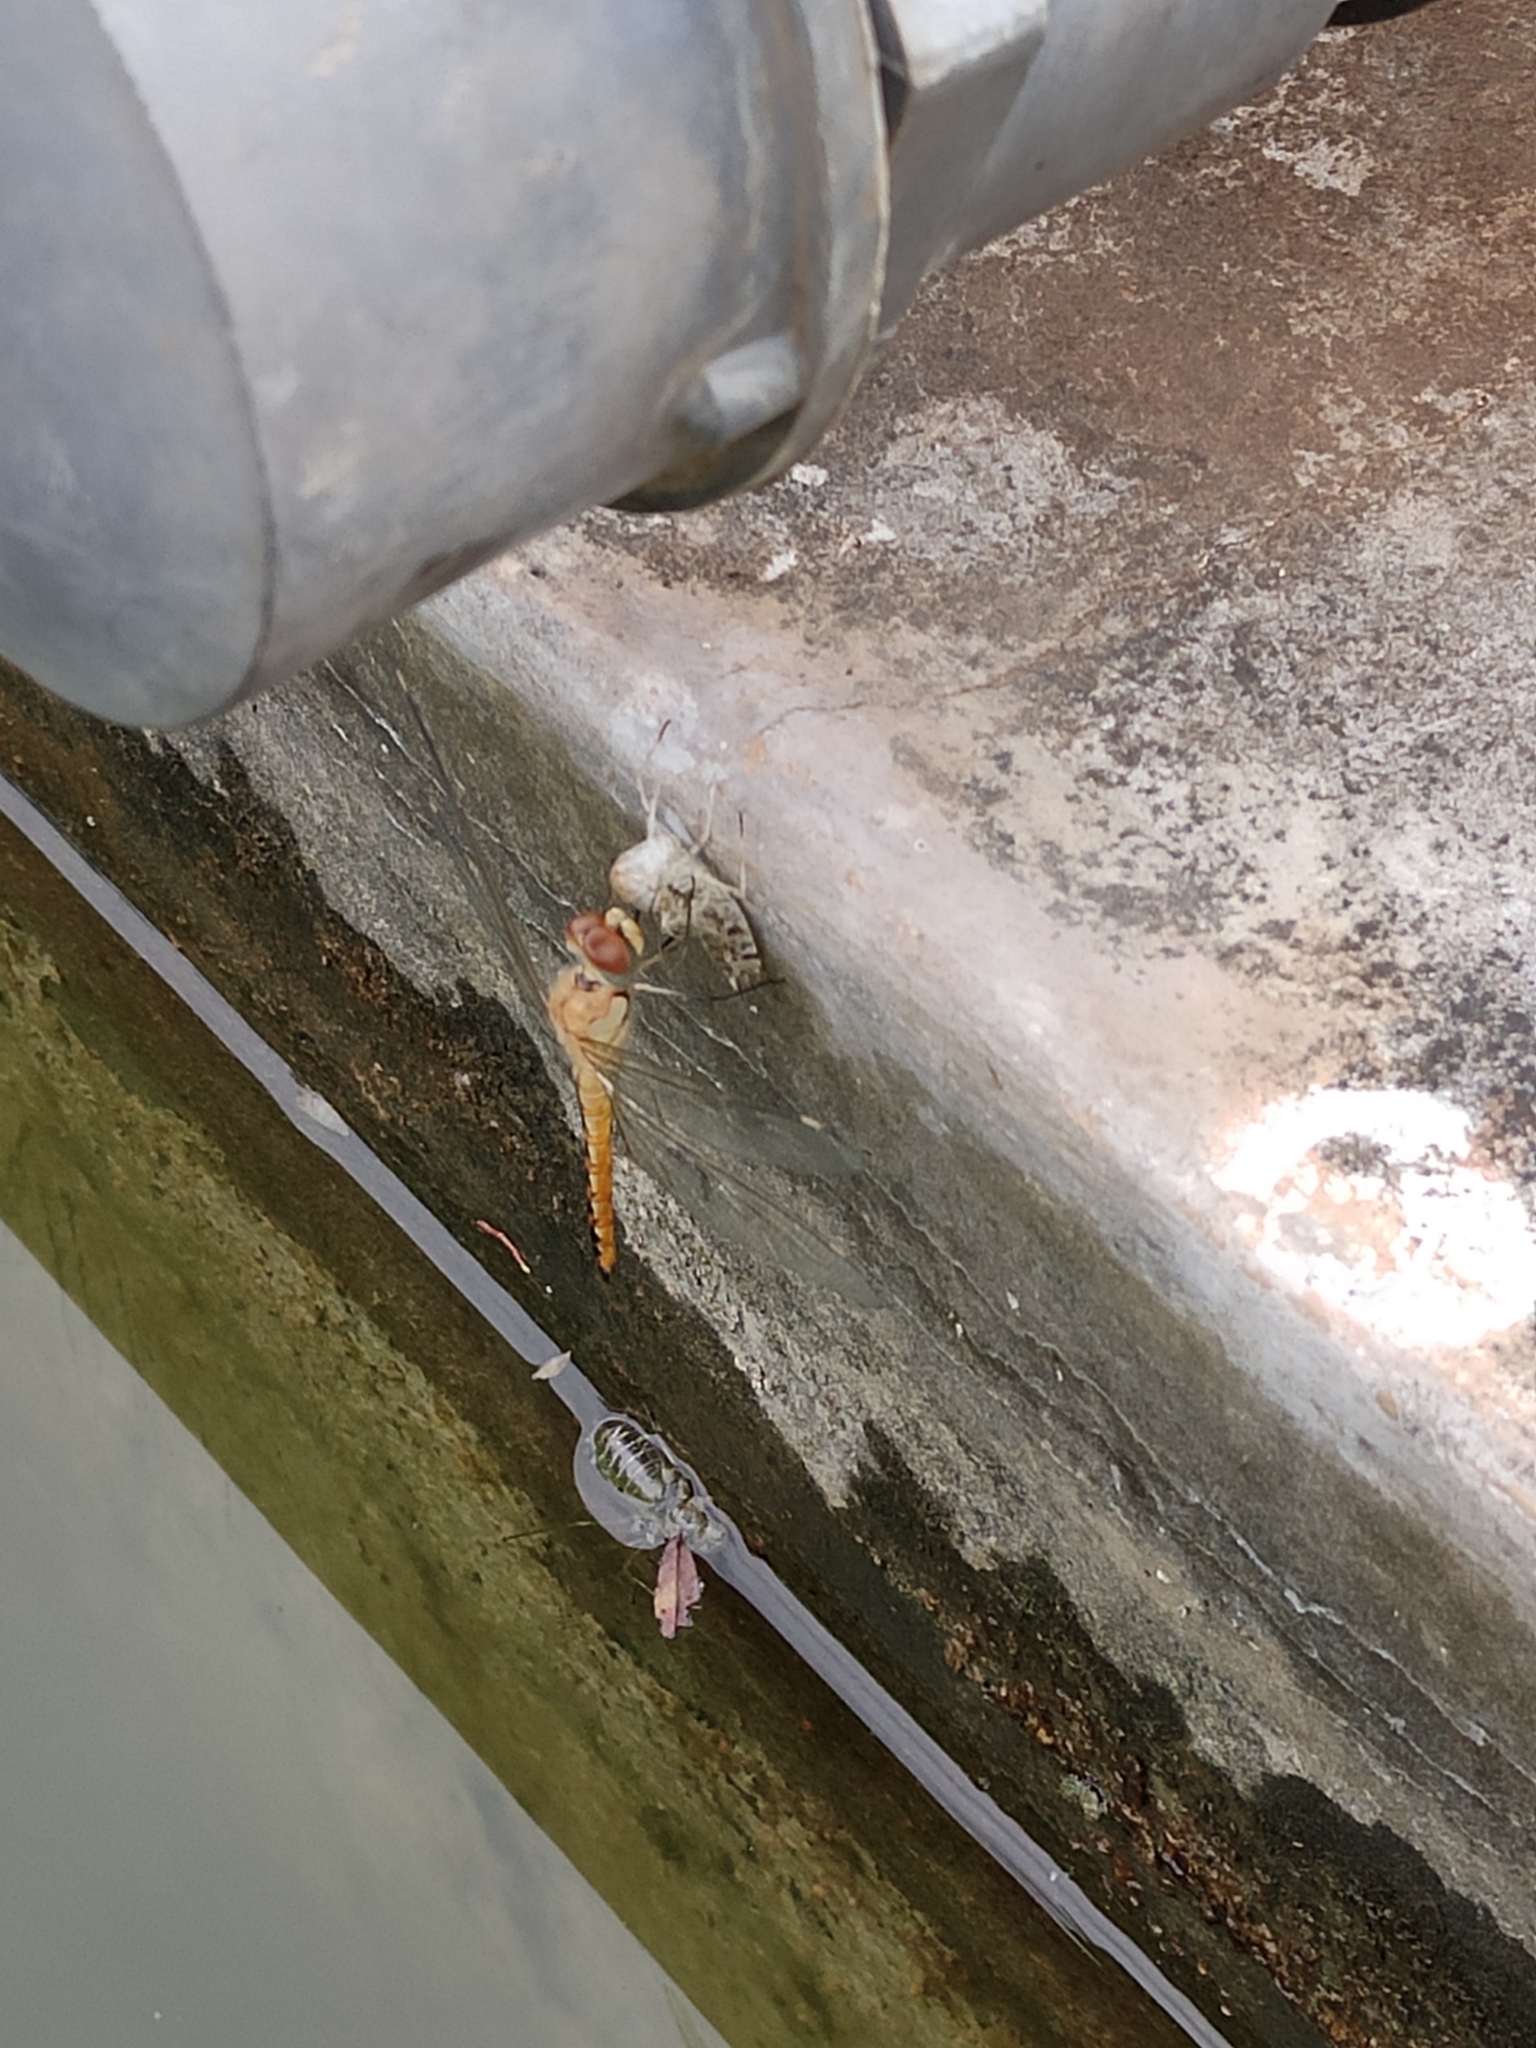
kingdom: Animalia
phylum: Arthropoda
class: Insecta
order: Odonata
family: Libellulidae
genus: Pantala
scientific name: Pantala flavescens
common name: Wandering glider
